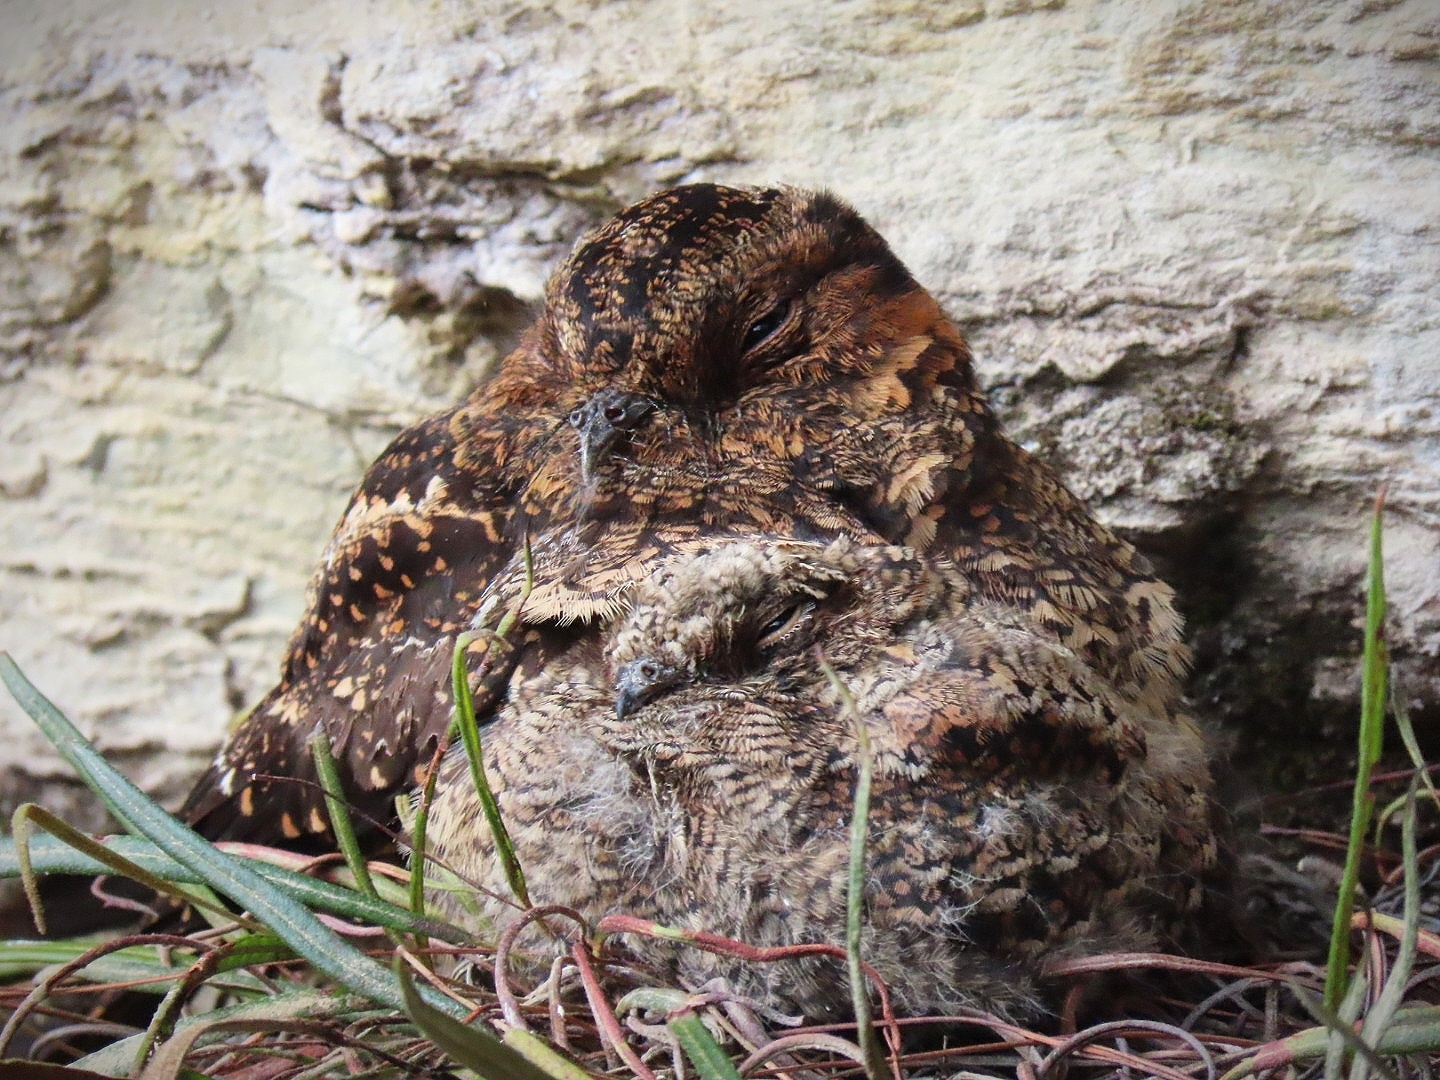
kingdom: Animalia
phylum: Chordata
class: Aves
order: Caprimulgiformes
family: Caprimulgidae
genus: Uropsalis
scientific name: Uropsalis lyra
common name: Lyre-tailed nightjar
